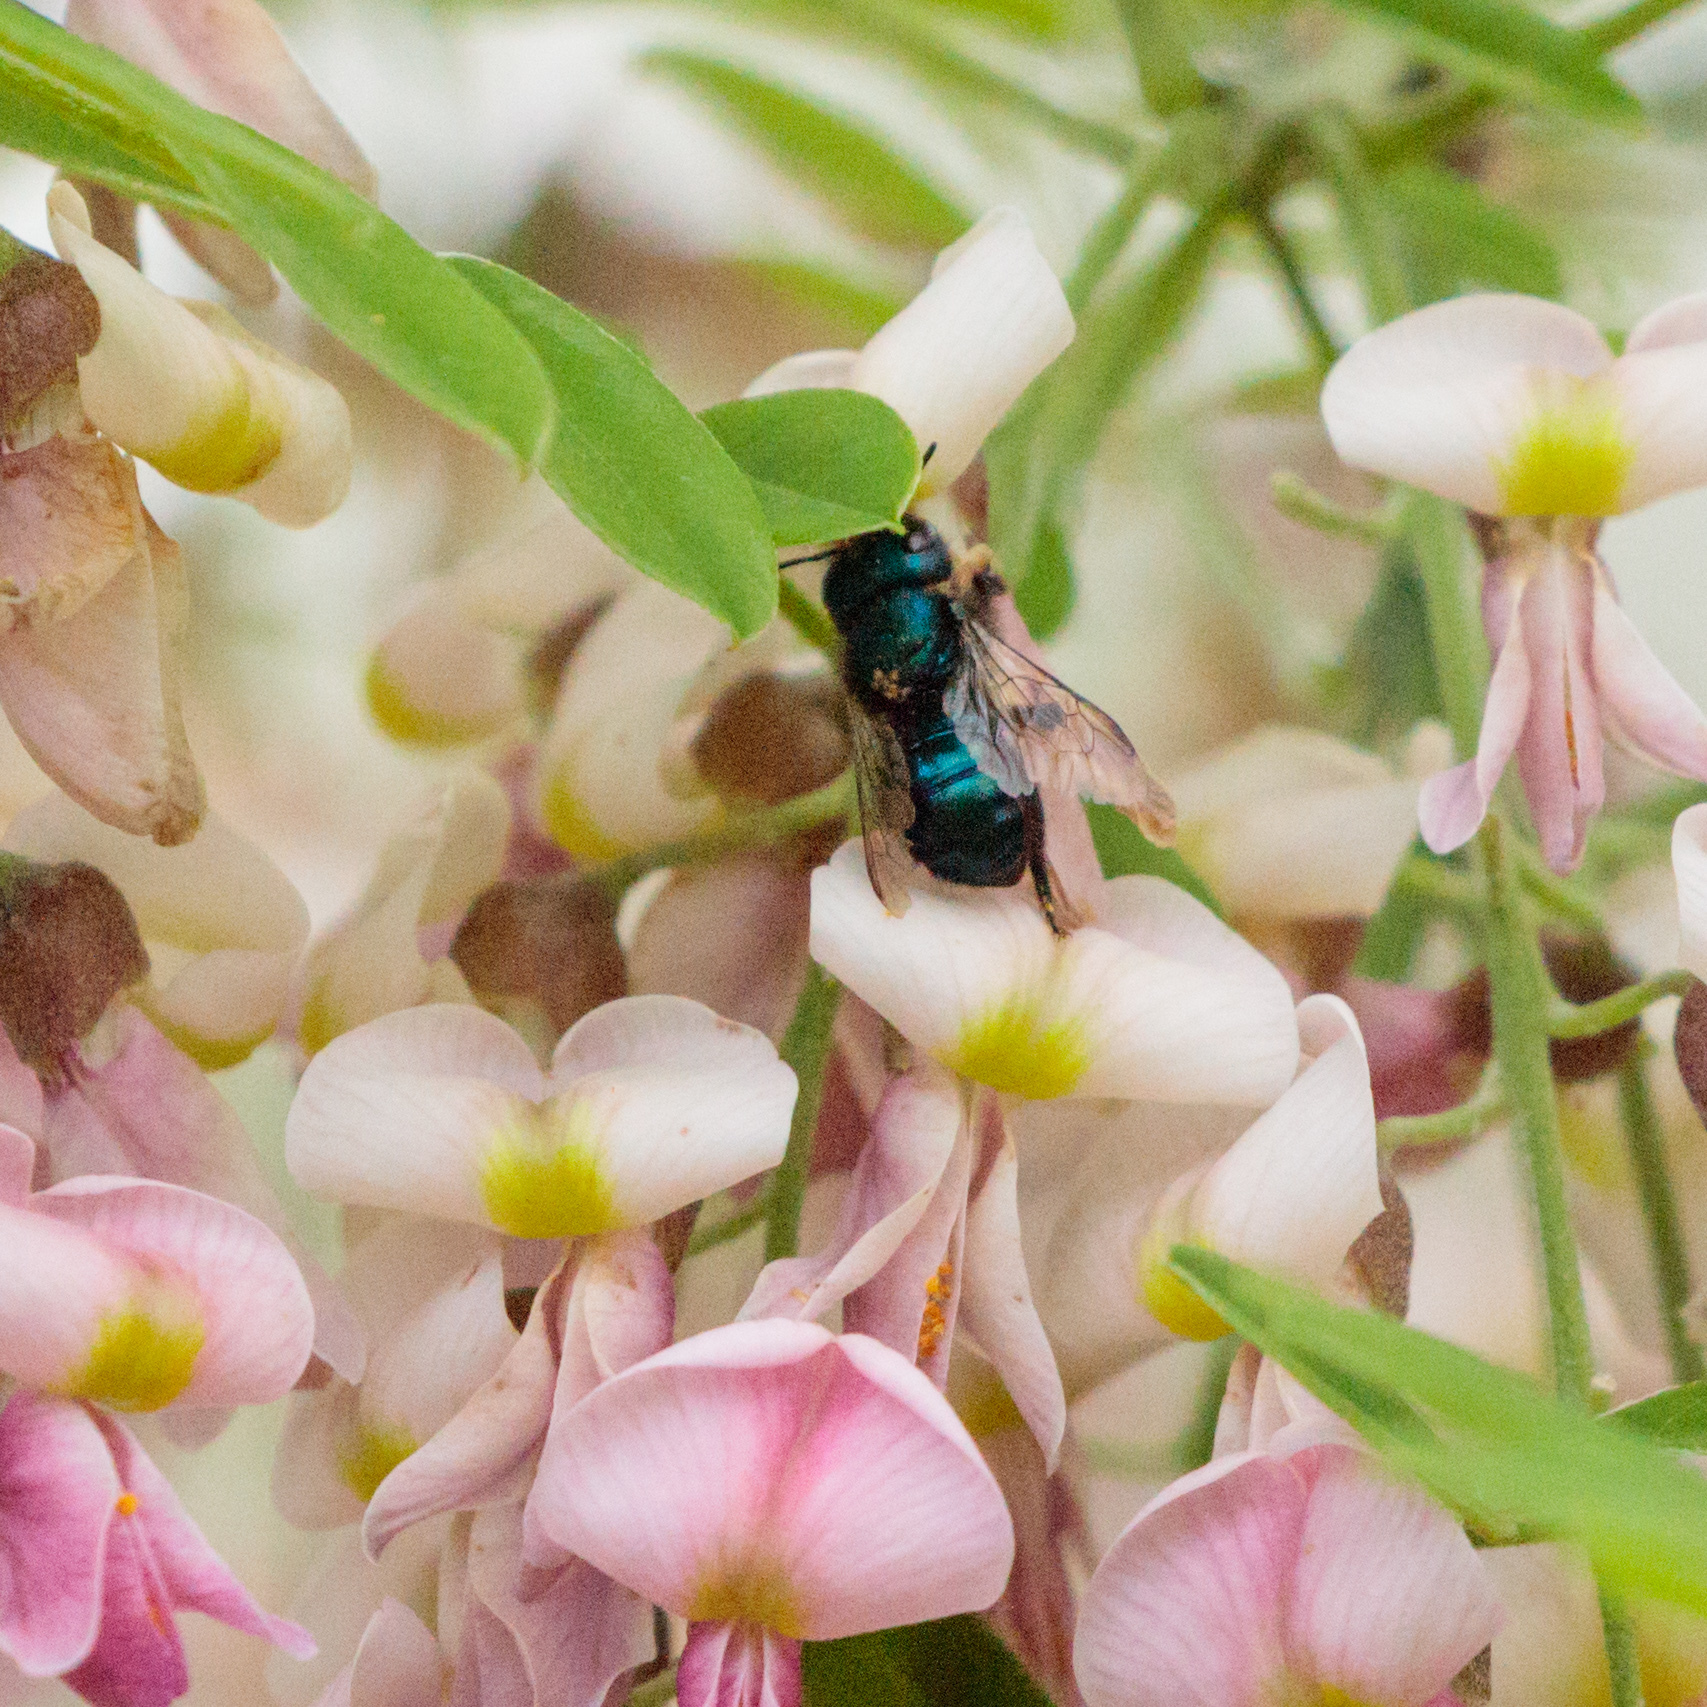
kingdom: Animalia
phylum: Arthropoda
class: Insecta
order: Hymenoptera
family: Megachilidae
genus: Osmia
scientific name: Osmia ribifloris
